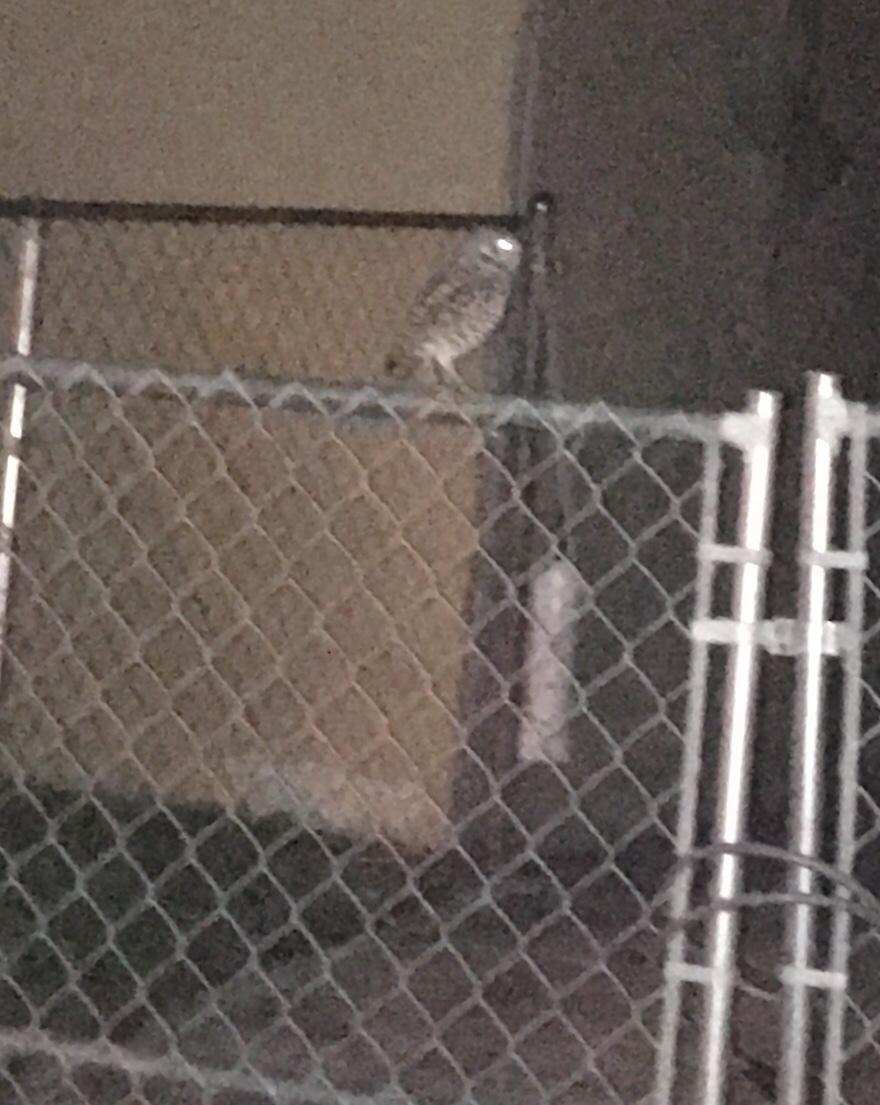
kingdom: Animalia
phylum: Chordata
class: Aves
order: Strigiformes
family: Strigidae
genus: Athene
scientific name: Athene cunicularia
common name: Burrowing owl
